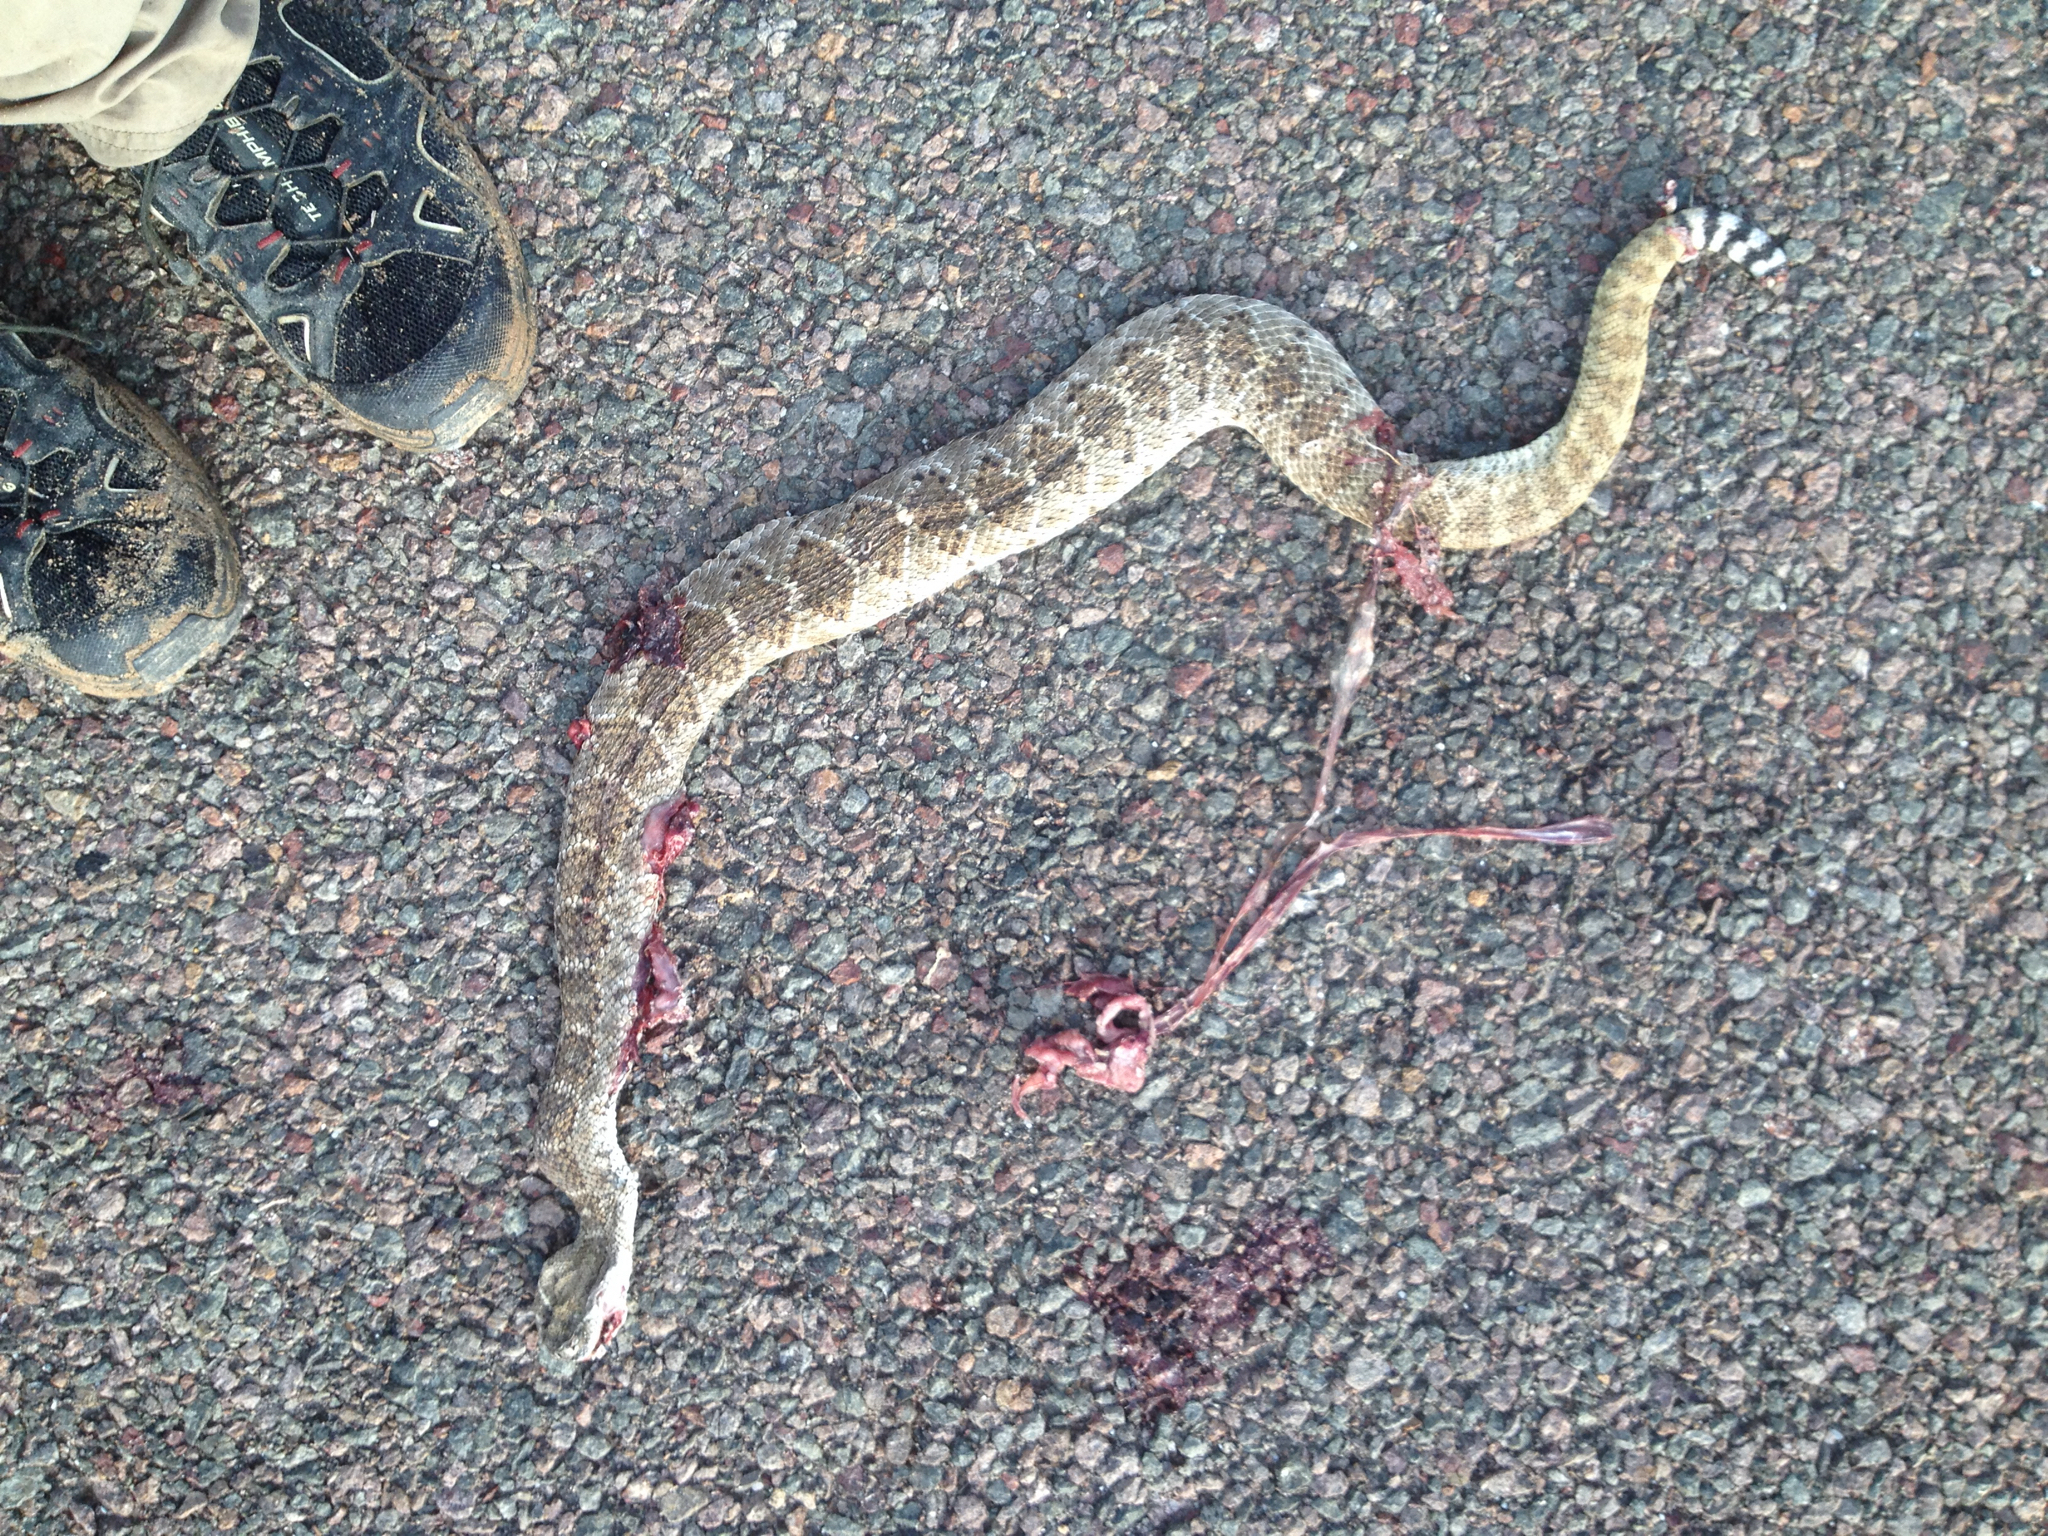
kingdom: Animalia
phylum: Chordata
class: Squamata
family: Viperidae
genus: Crotalus
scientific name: Crotalus atrox
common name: Western diamond-backed rattlesnake
